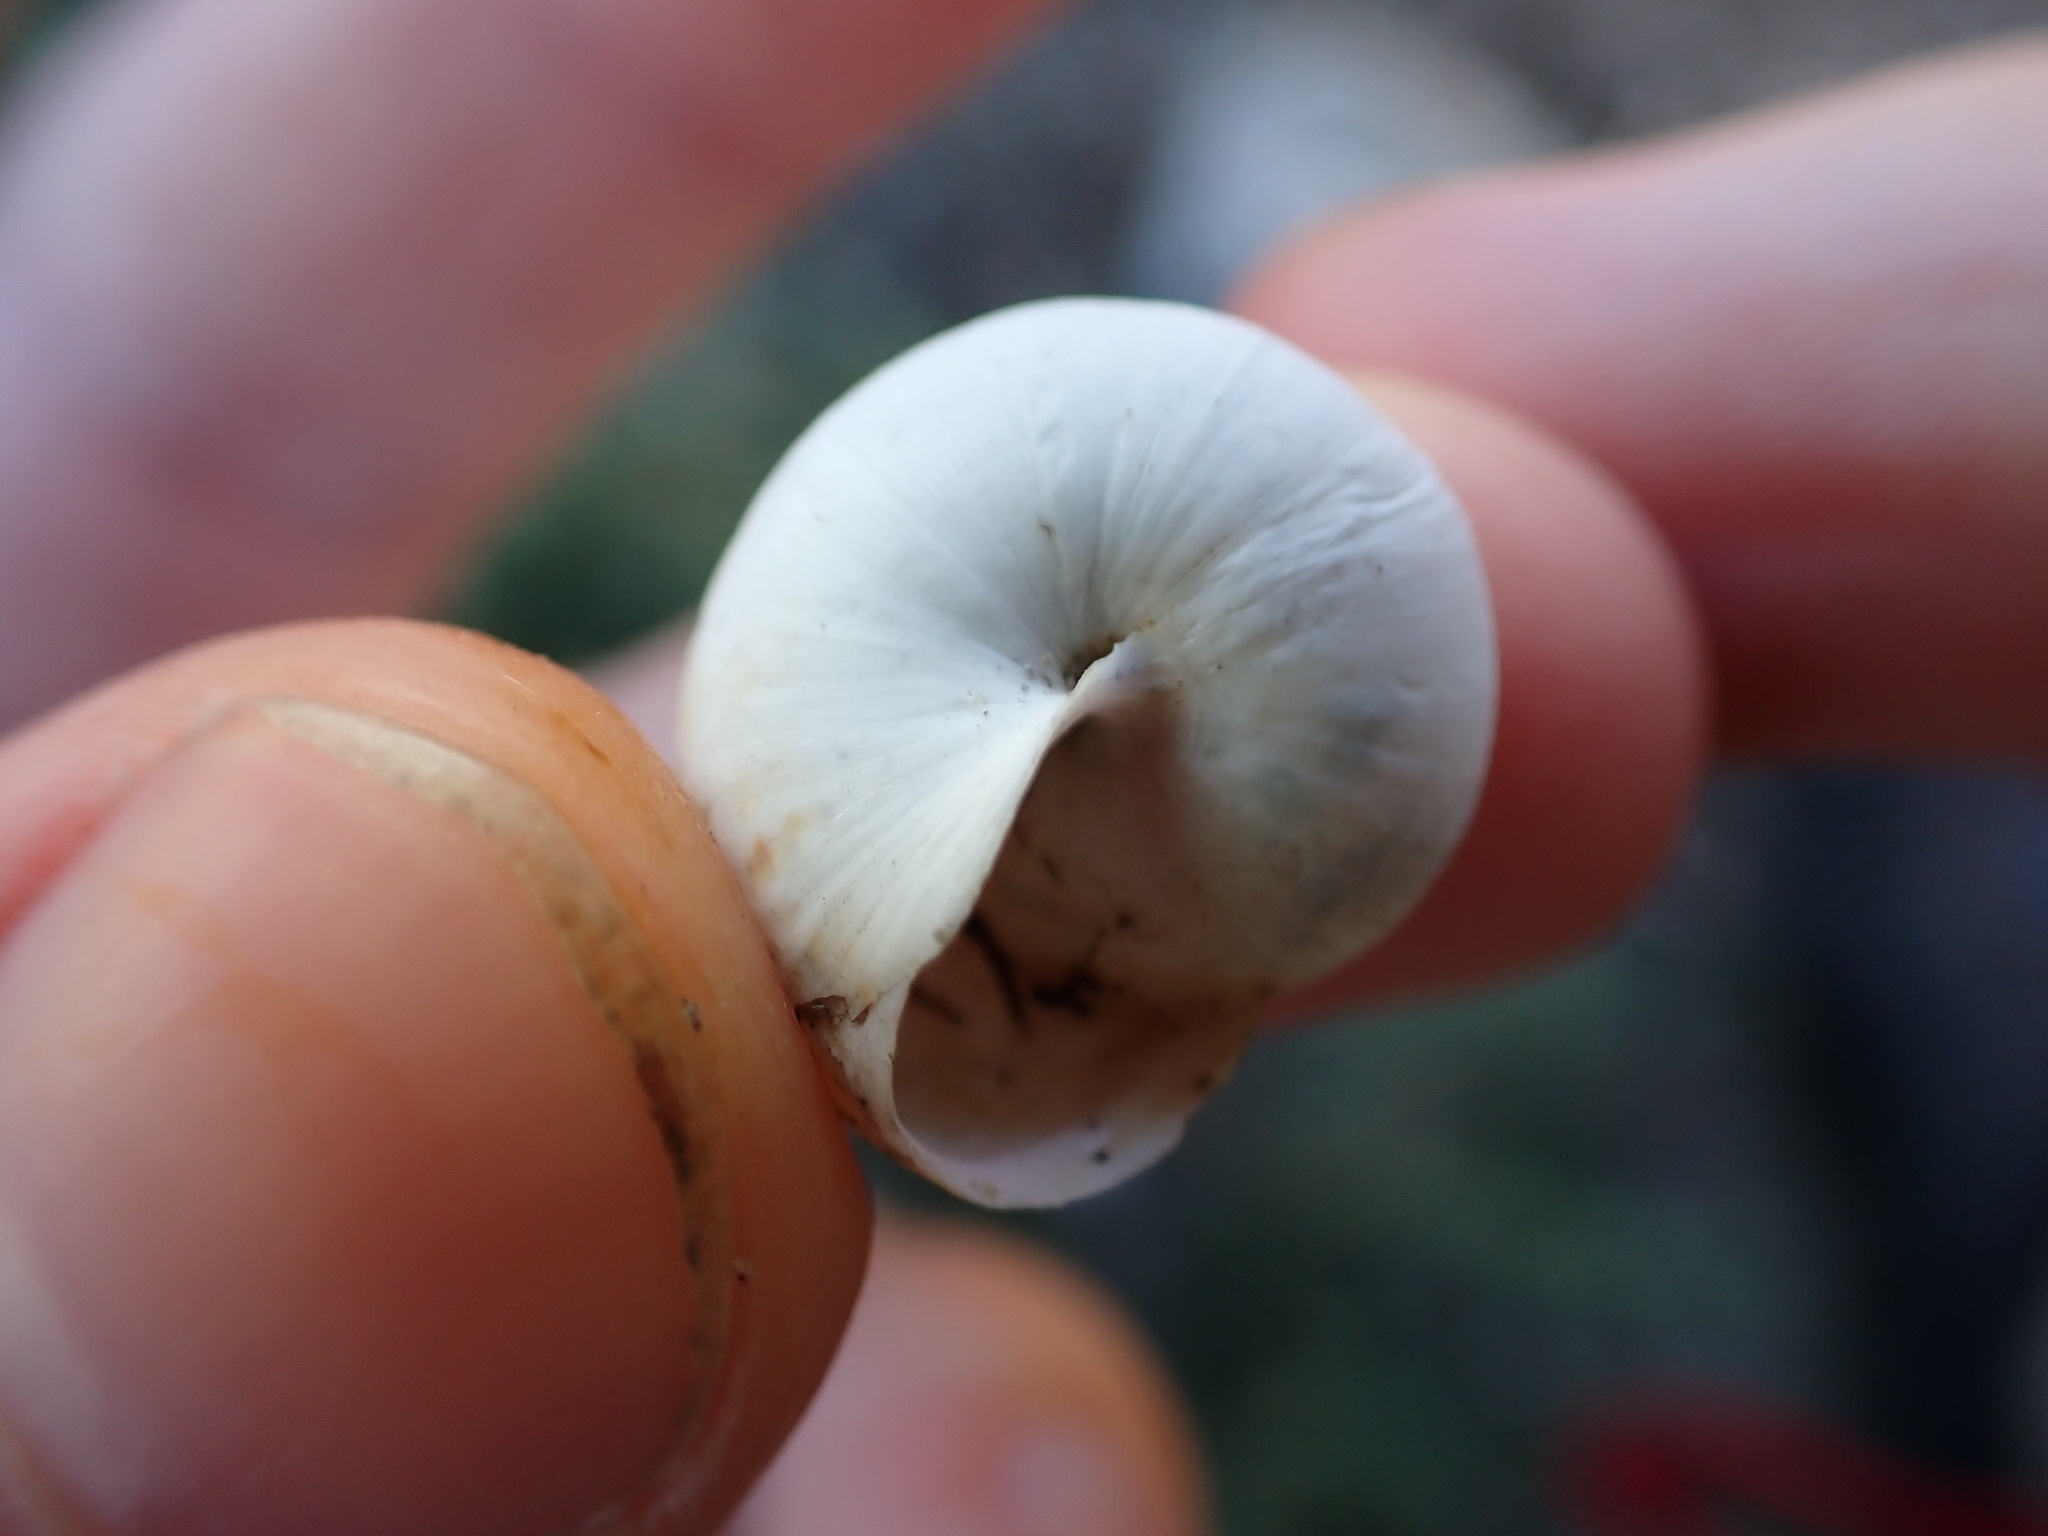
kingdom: Animalia
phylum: Mollusca
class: Gastropoda
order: Stylommatophora
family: Helicidae
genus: Theba
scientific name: Theba pisana
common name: White snail
